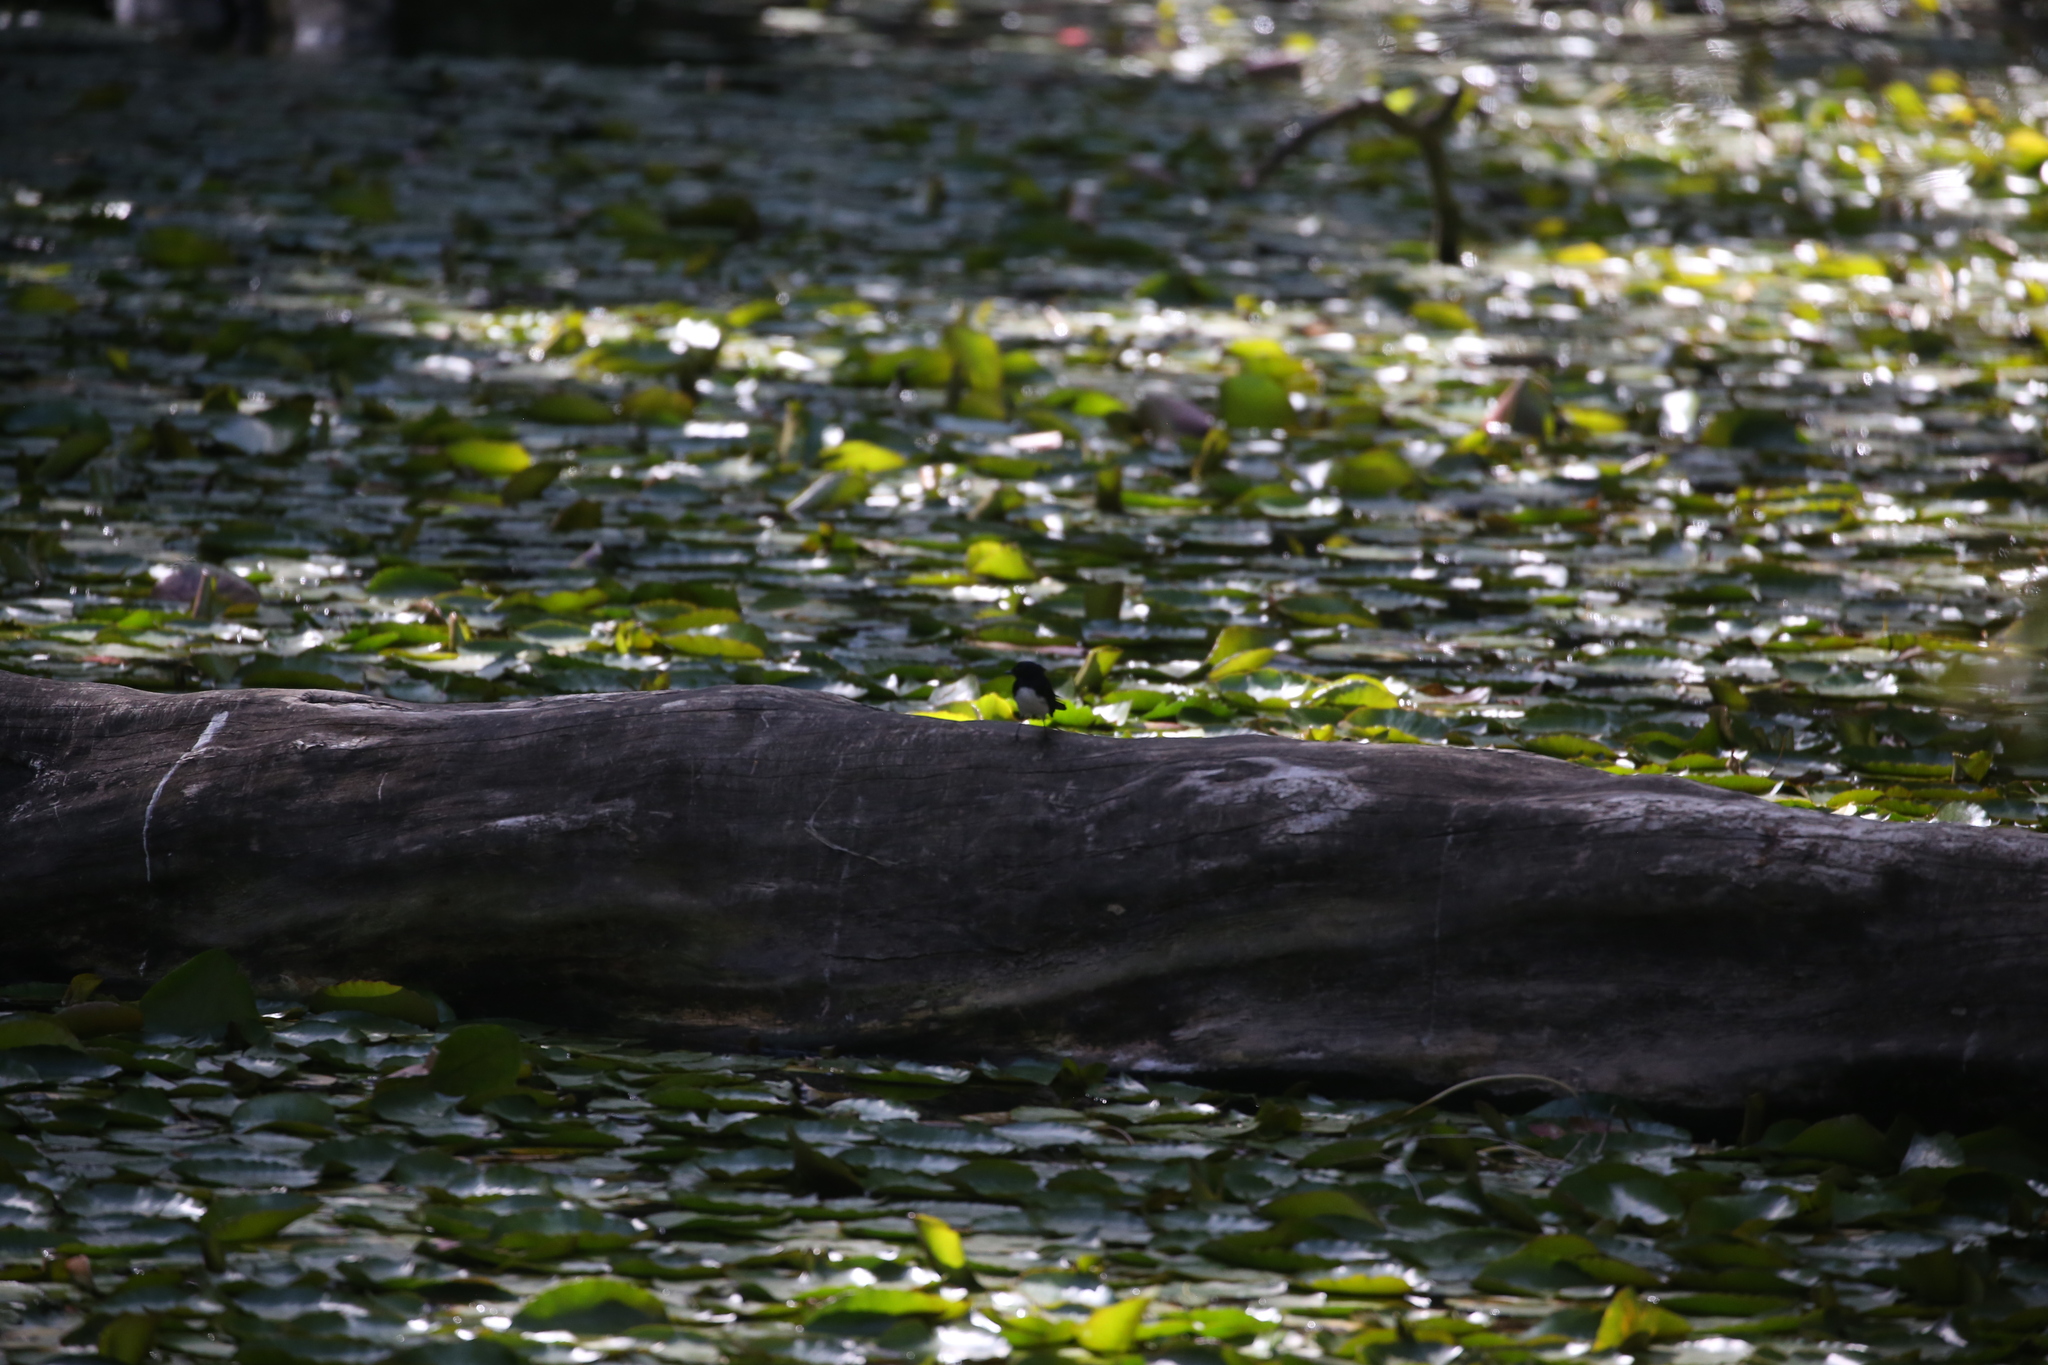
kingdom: Animalia
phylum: Chordata
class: Aves
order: Passeriformes
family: Rhipiduridae
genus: Rhipidura
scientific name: Rhipidura leucophrys
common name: Willie wagtail
